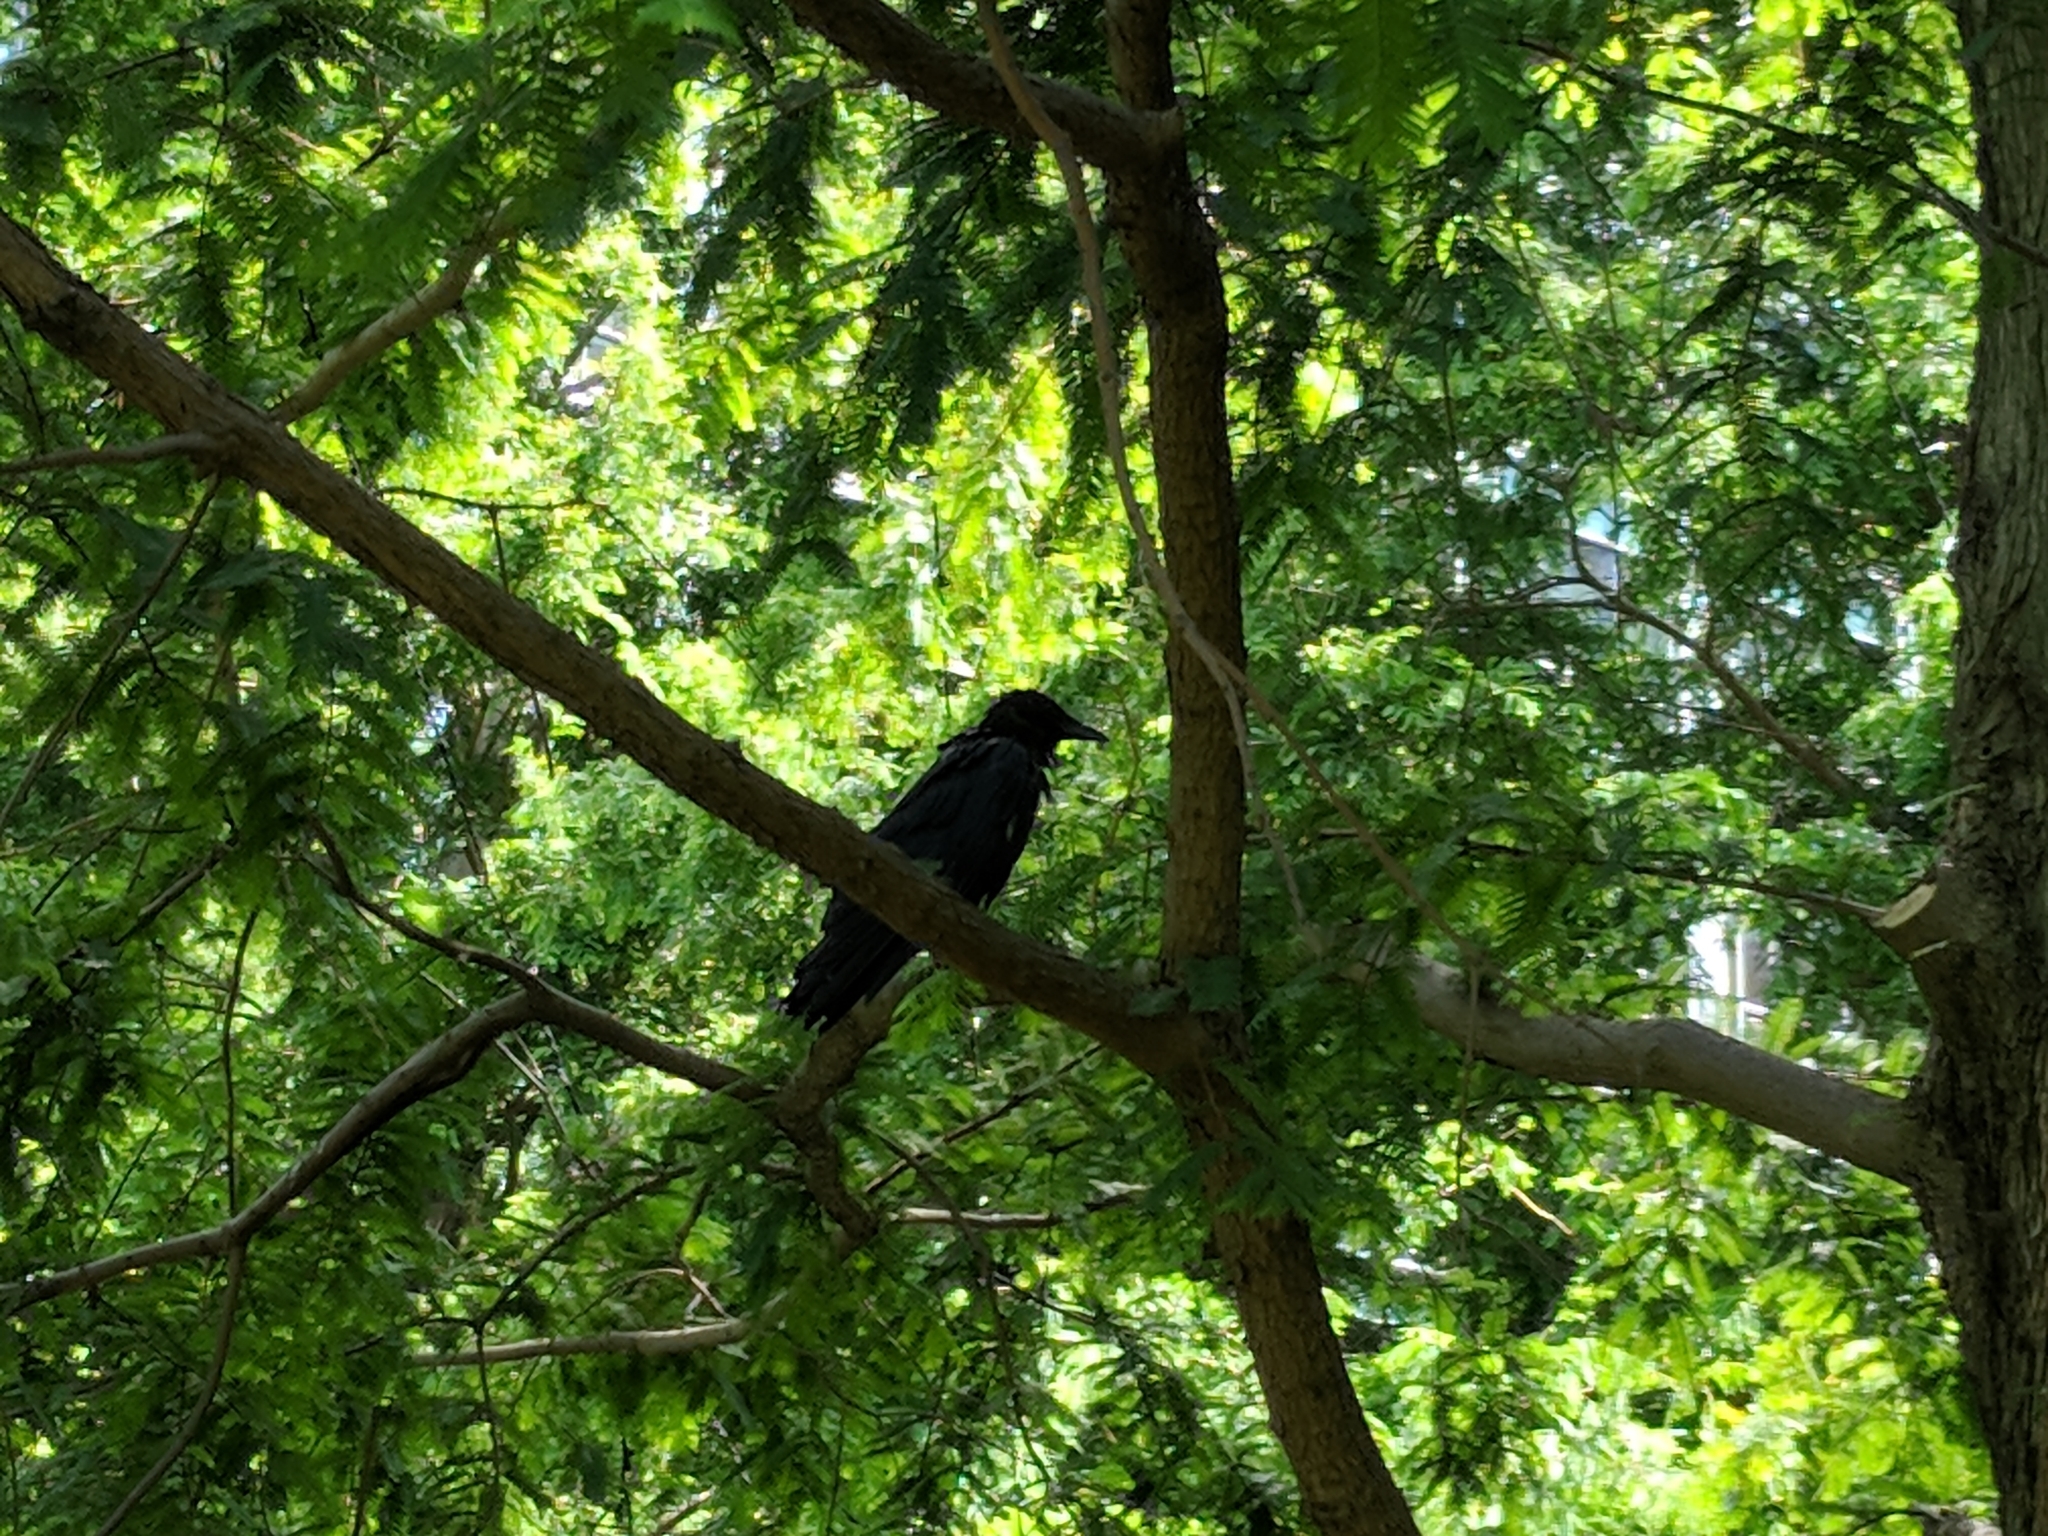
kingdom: Animalia
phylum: Chordata
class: Aves
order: Passeriformes
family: Corvidae
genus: Corvus
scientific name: Corvus corone
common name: Carrion crow
